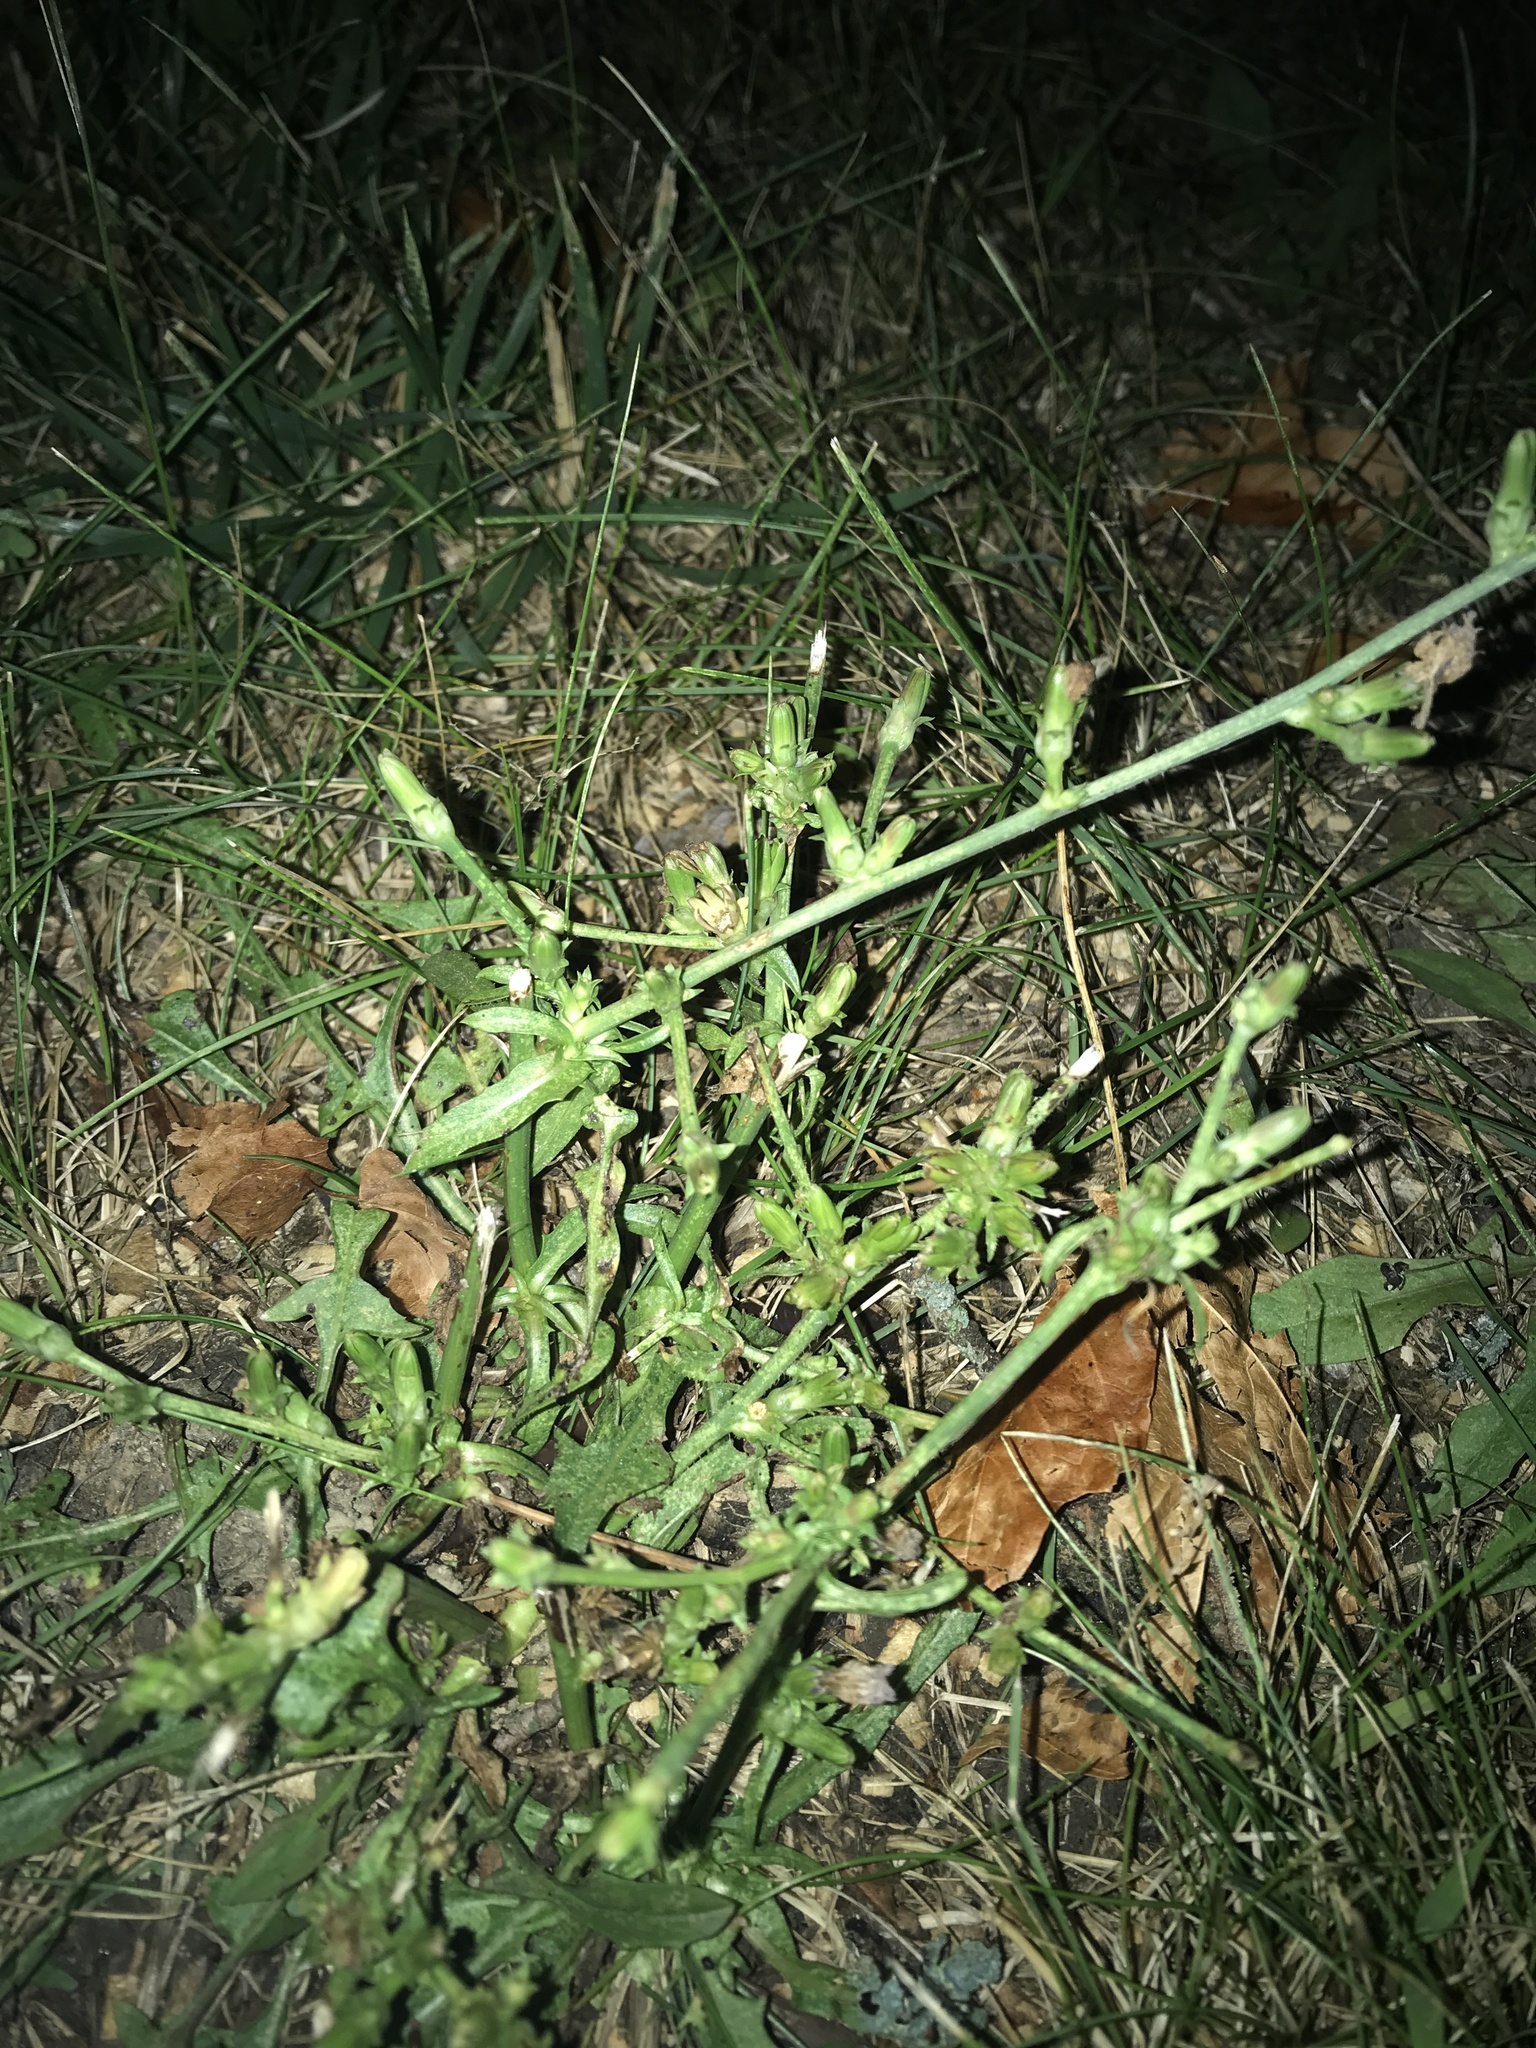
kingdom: Plantae
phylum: Tracheophyta
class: Magnoliopsida
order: Asterales
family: Asteraceae
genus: Cichorium
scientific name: Cichorium intybus
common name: Chicory
